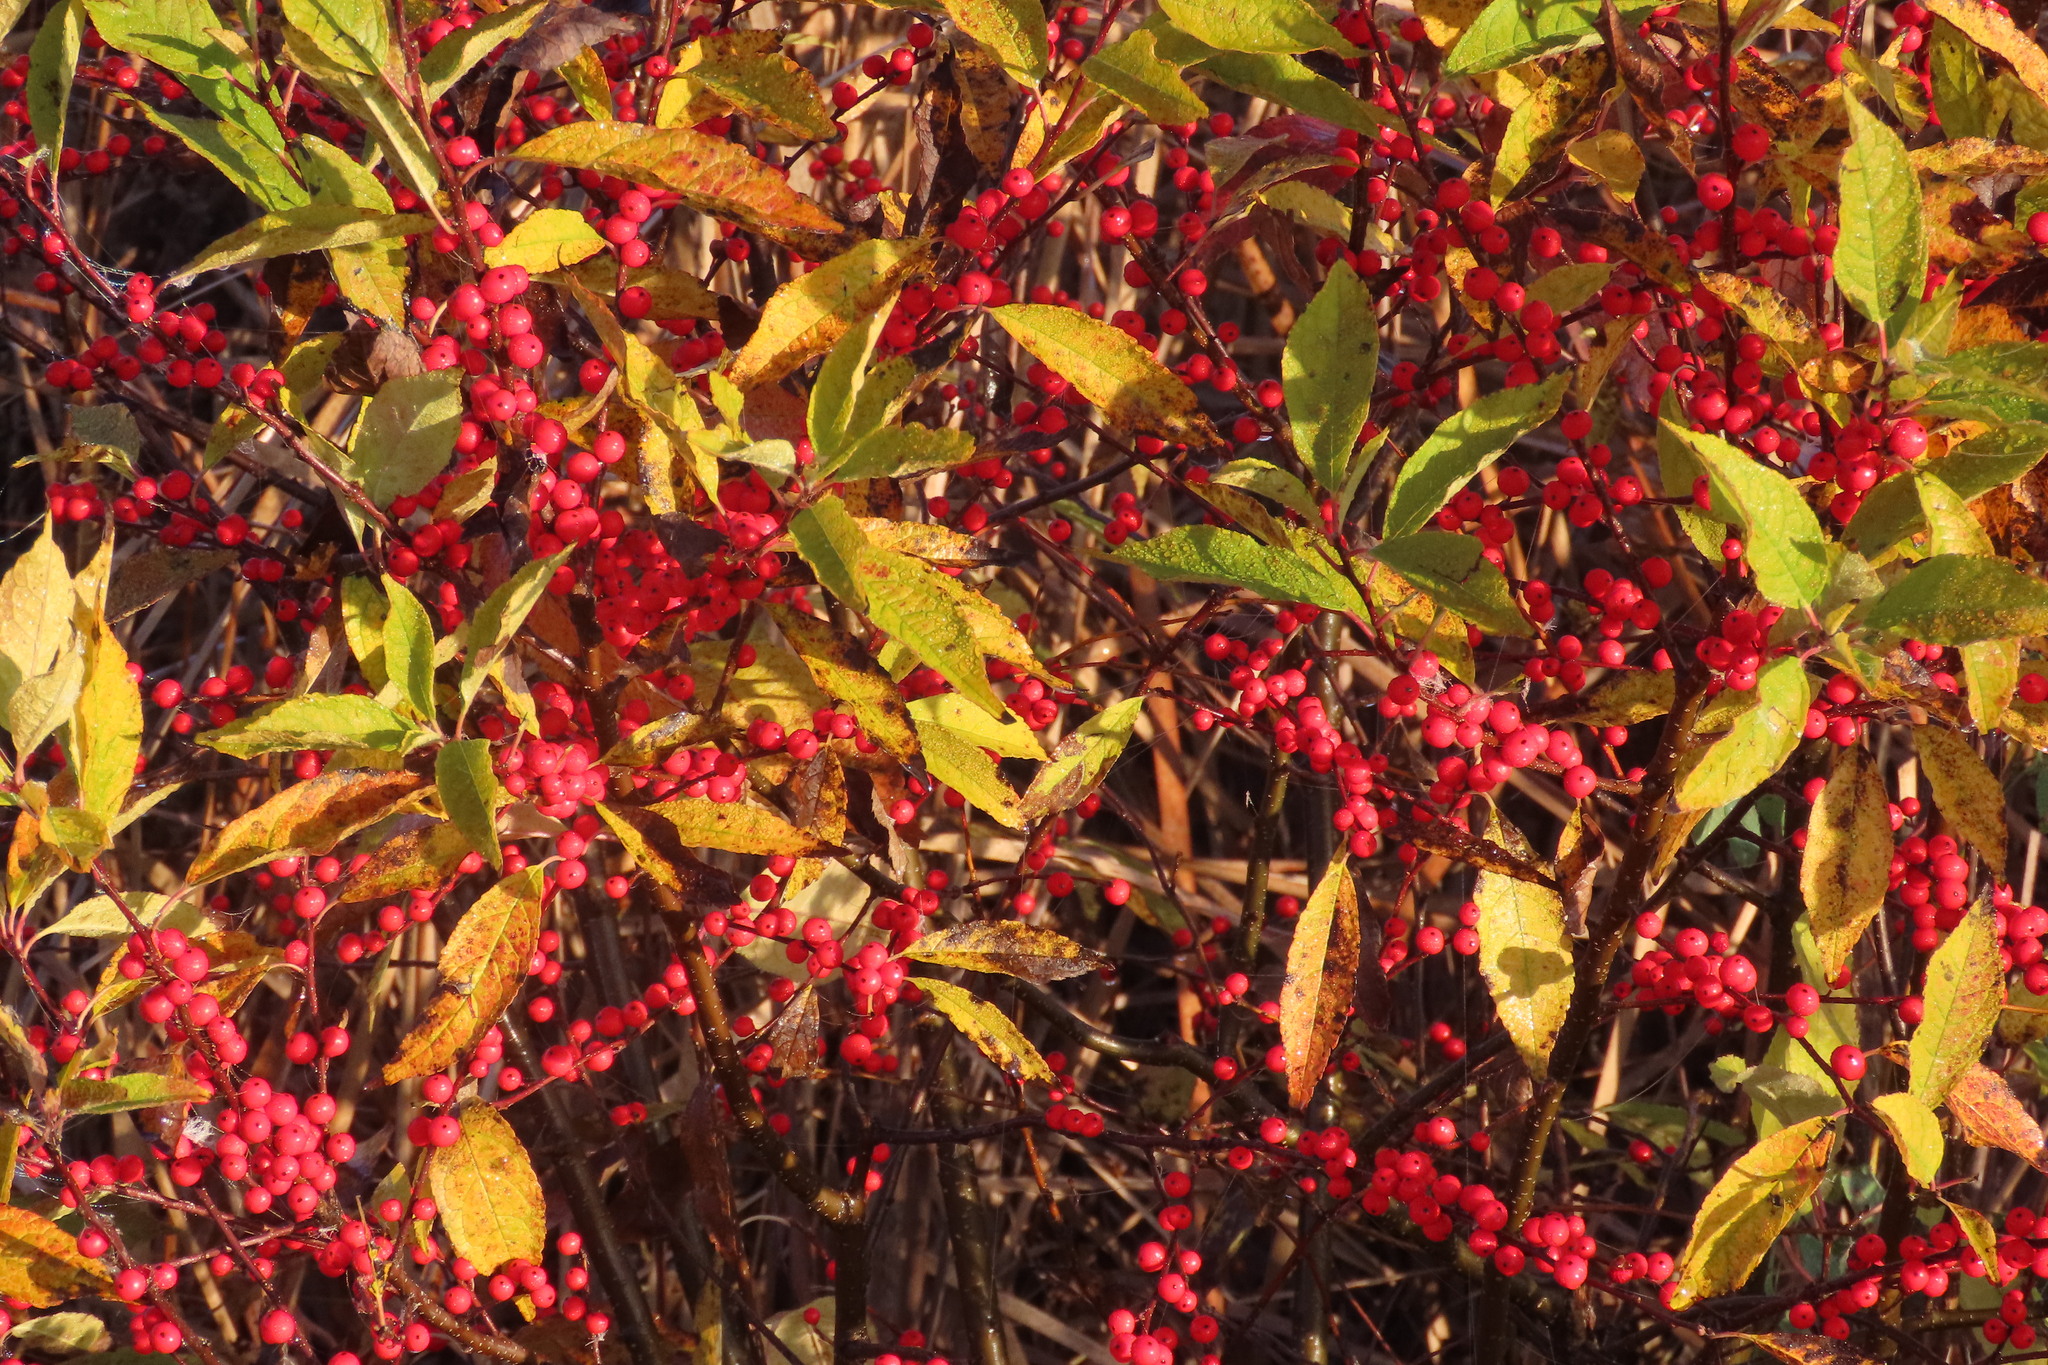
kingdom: Plantae
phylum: Tracheophyta
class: Magnoliopsida
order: Aquifoliales
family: Aquifoliaceae
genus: Ilex
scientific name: Ilex verticillata
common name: Virginia winterberry
